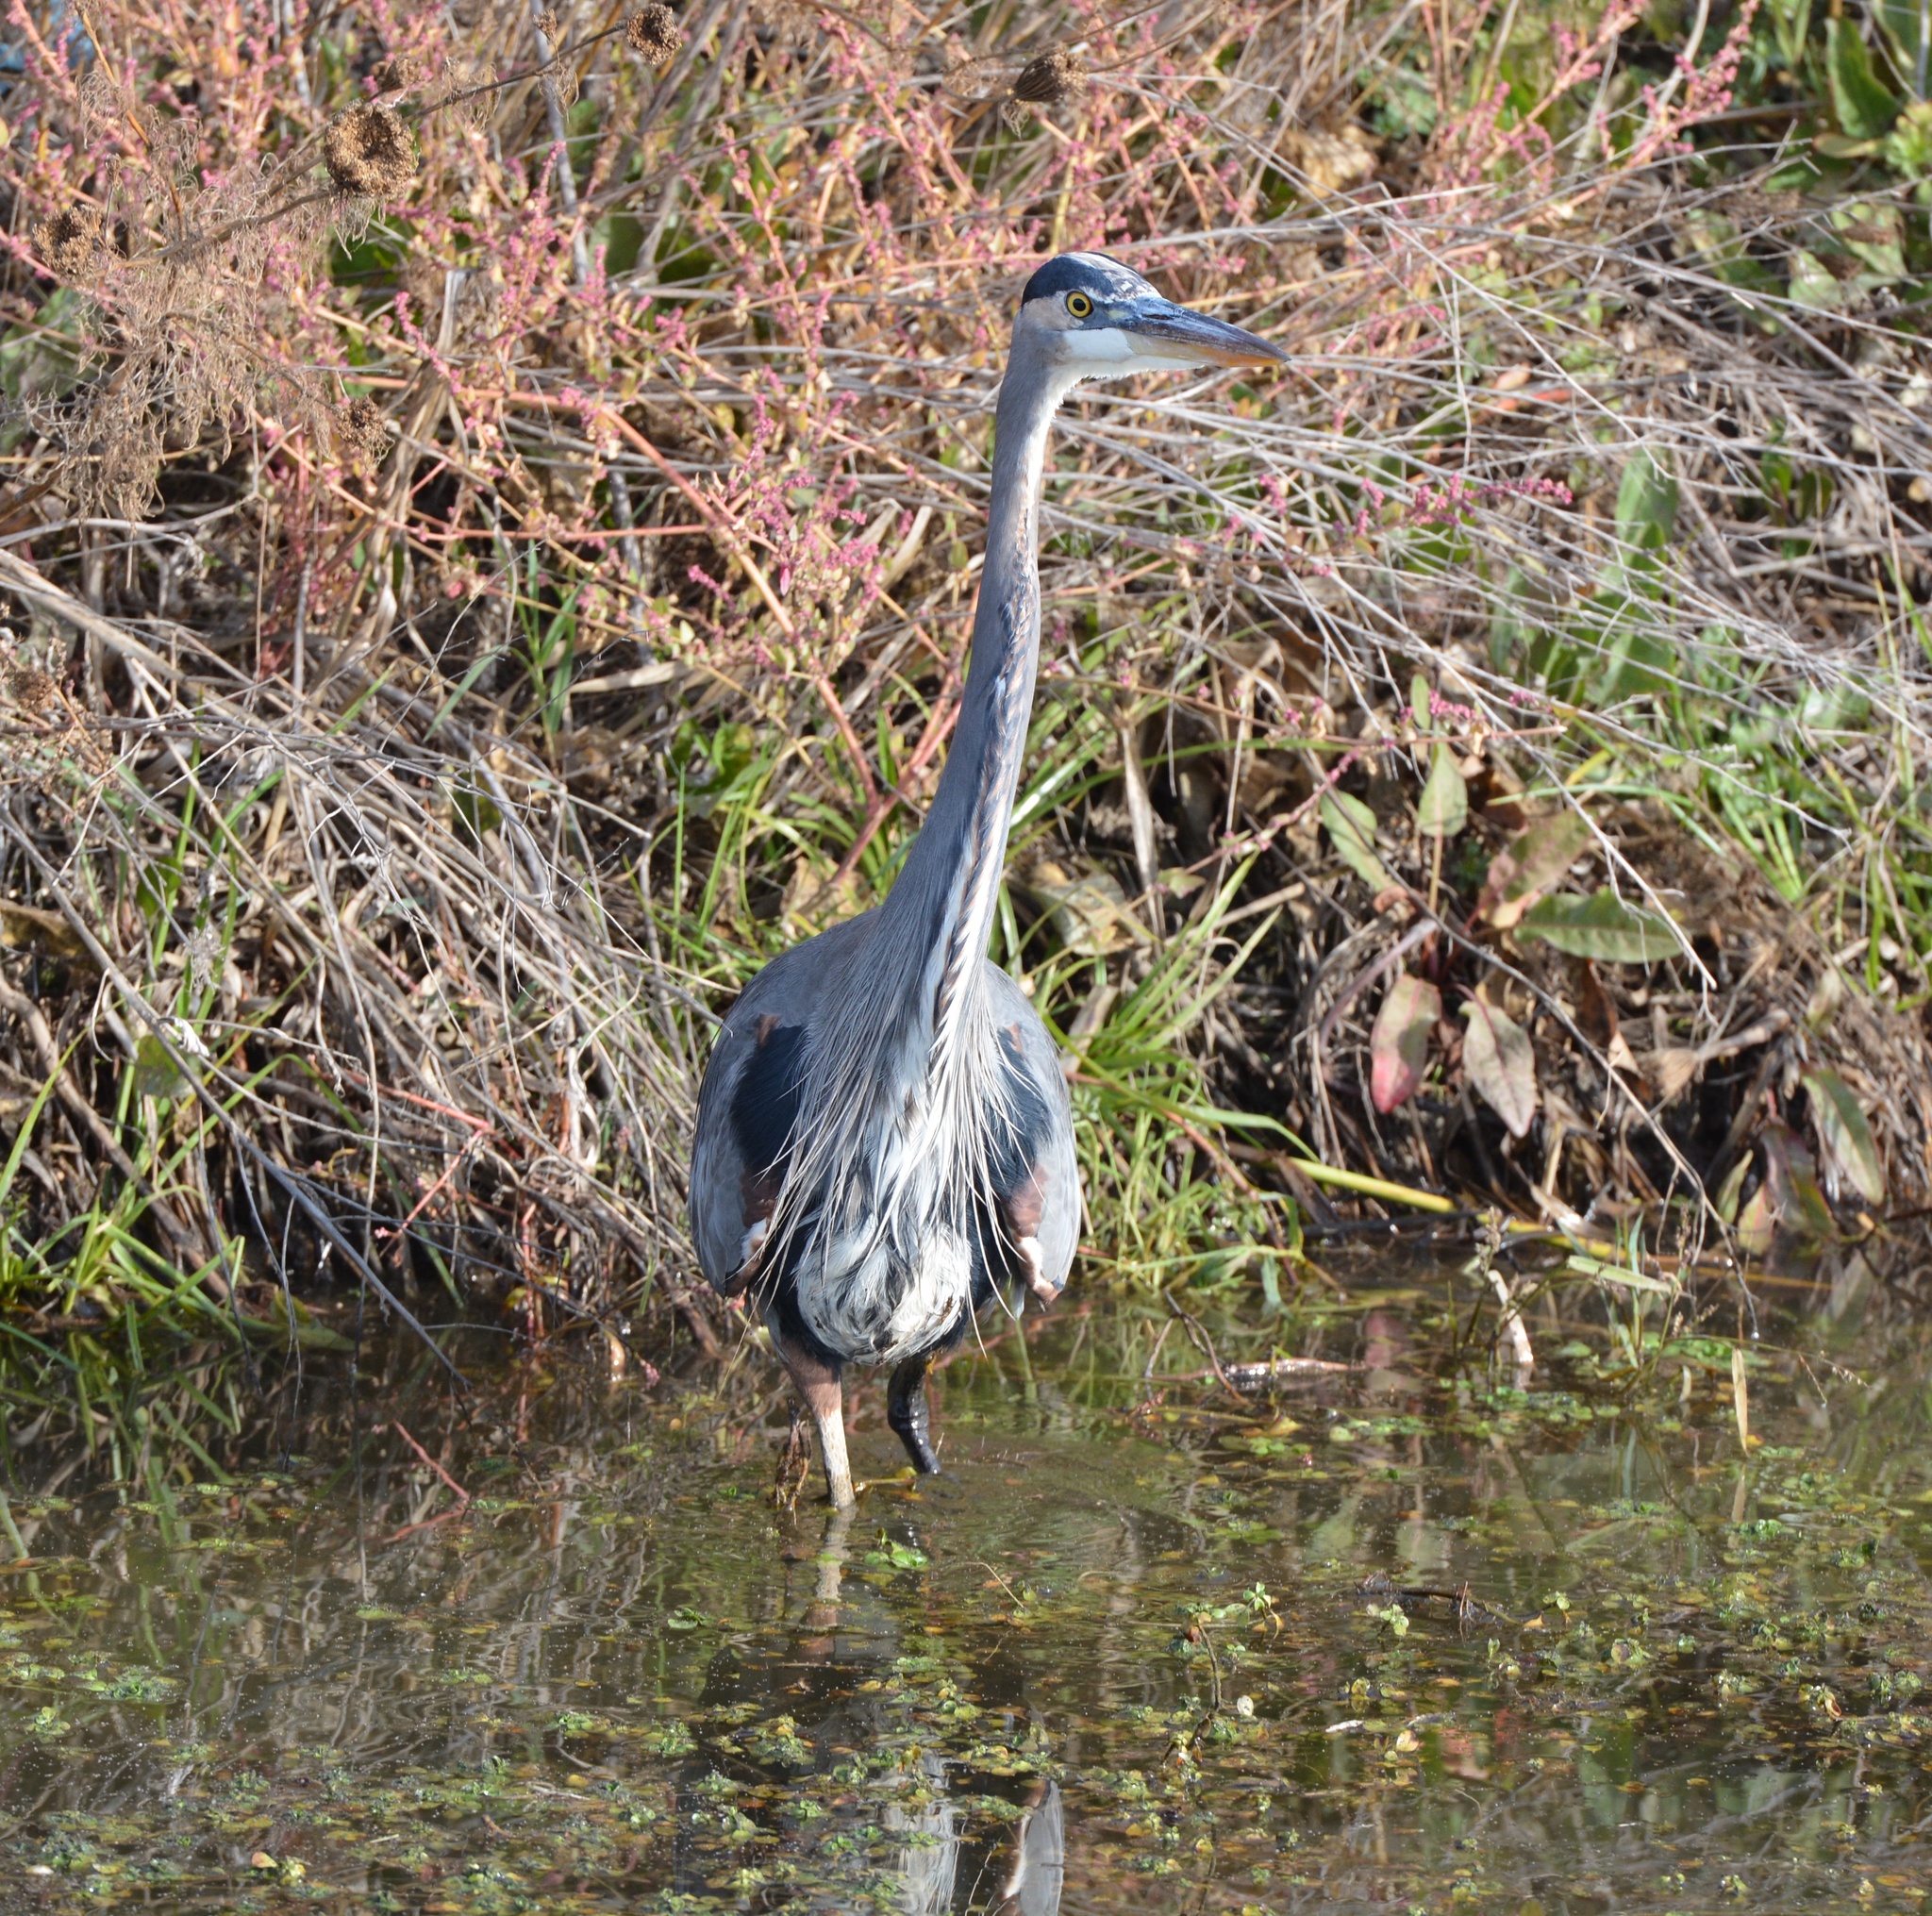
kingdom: Animalia
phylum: Chordata
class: Aves
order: Pelecaniformes
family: Ardeidae
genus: Ardea
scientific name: Ardea herodias
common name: Great blue heron
